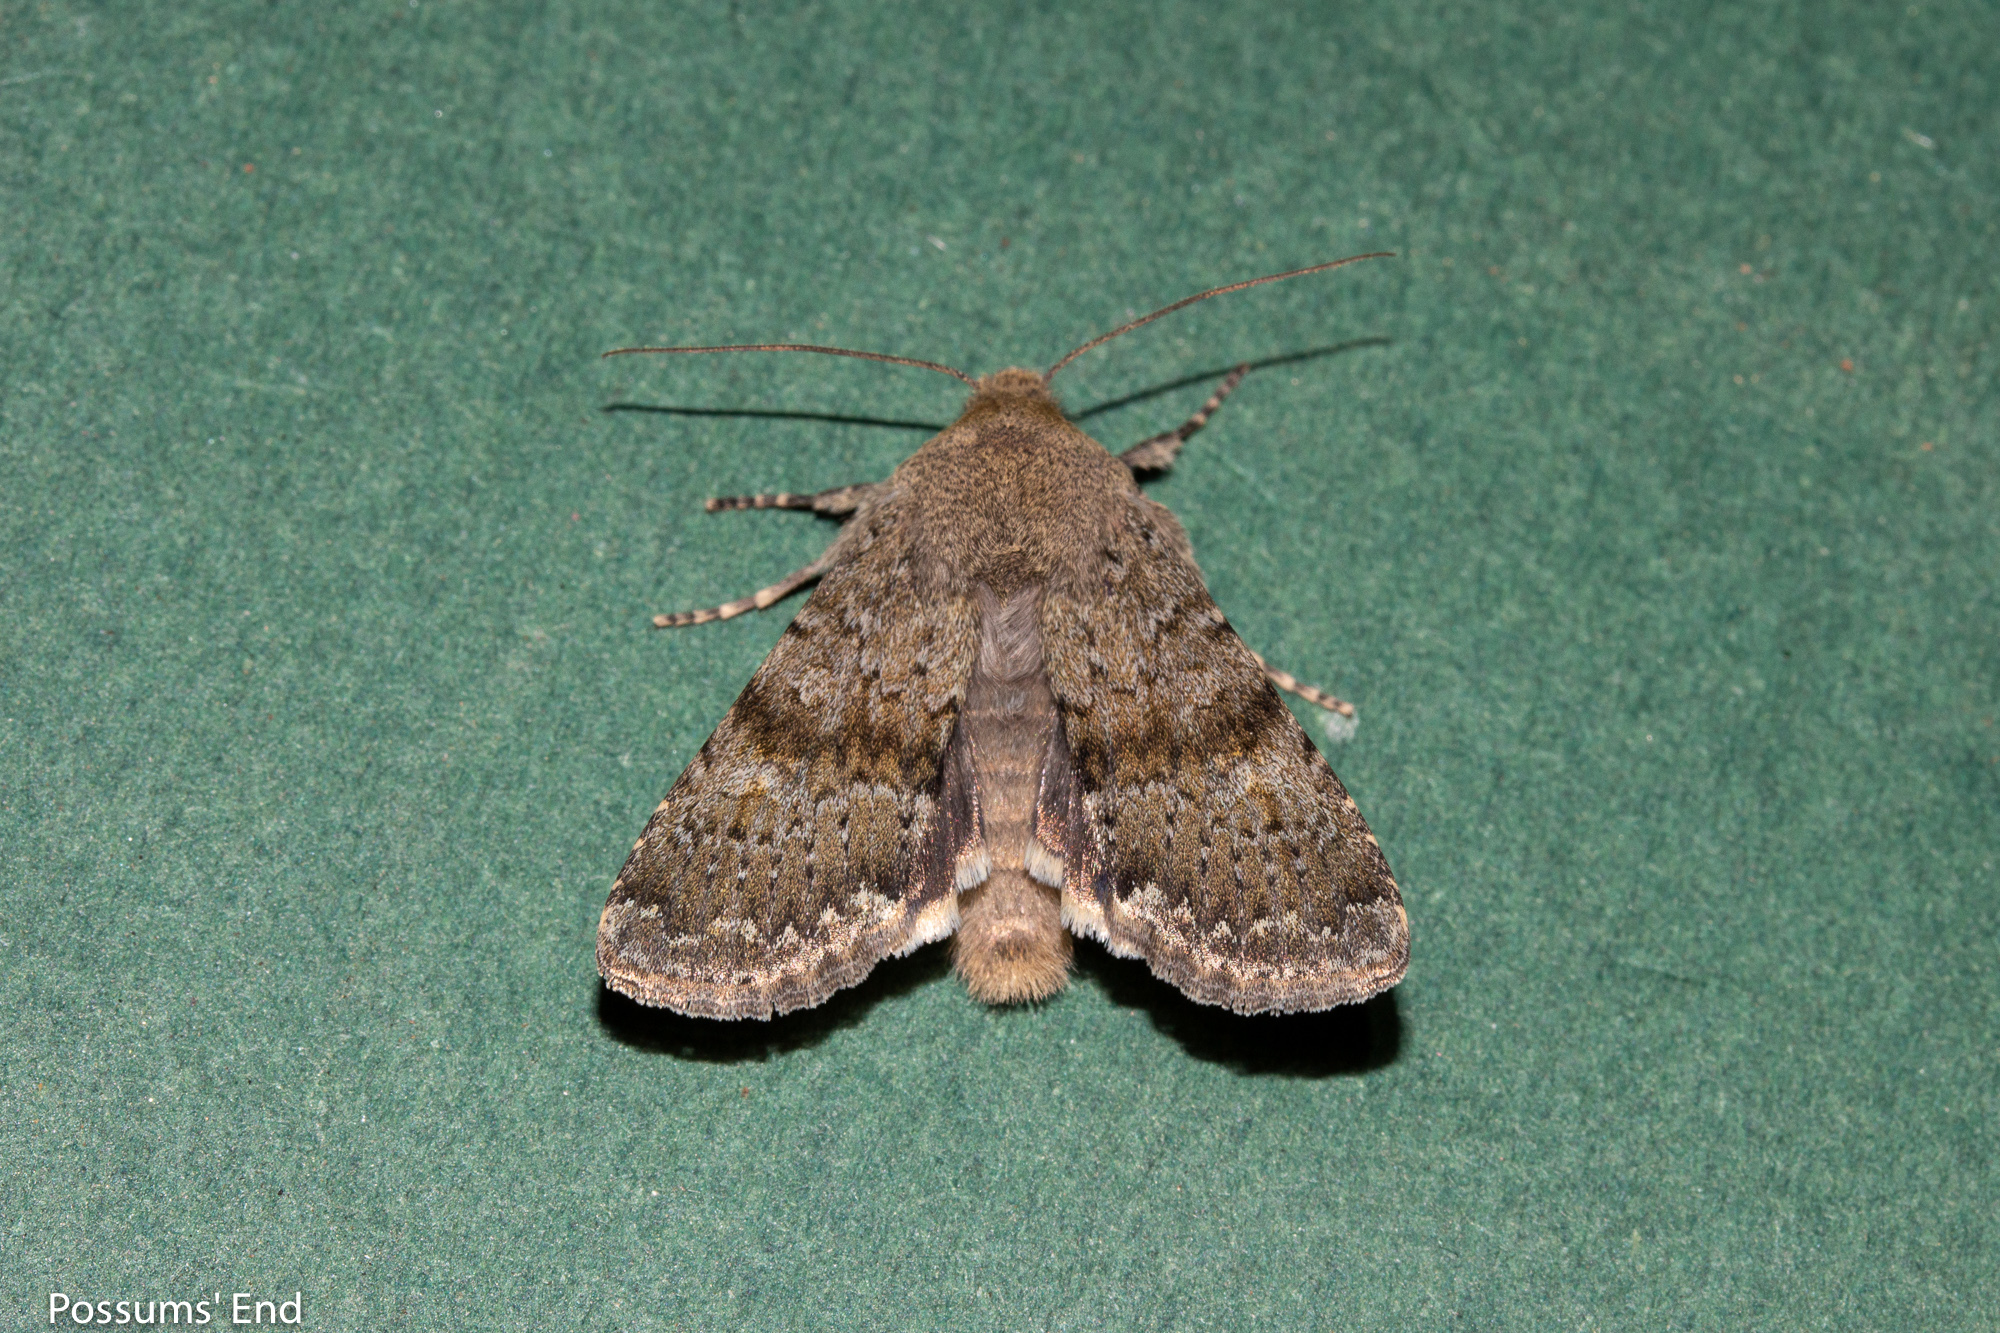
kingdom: Animalia
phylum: Arthropoda
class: Insecta
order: Lepidoptera
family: Noctuidae
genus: Ichneutica
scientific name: Ichneutica moderata
